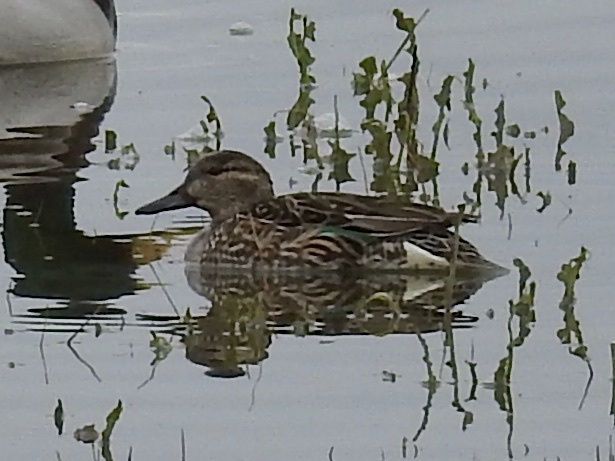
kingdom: Animalia
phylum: Chordata
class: Aves
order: Anseriformes
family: Anatidae
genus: Anas
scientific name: Anas crecca
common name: Eurasian teal
